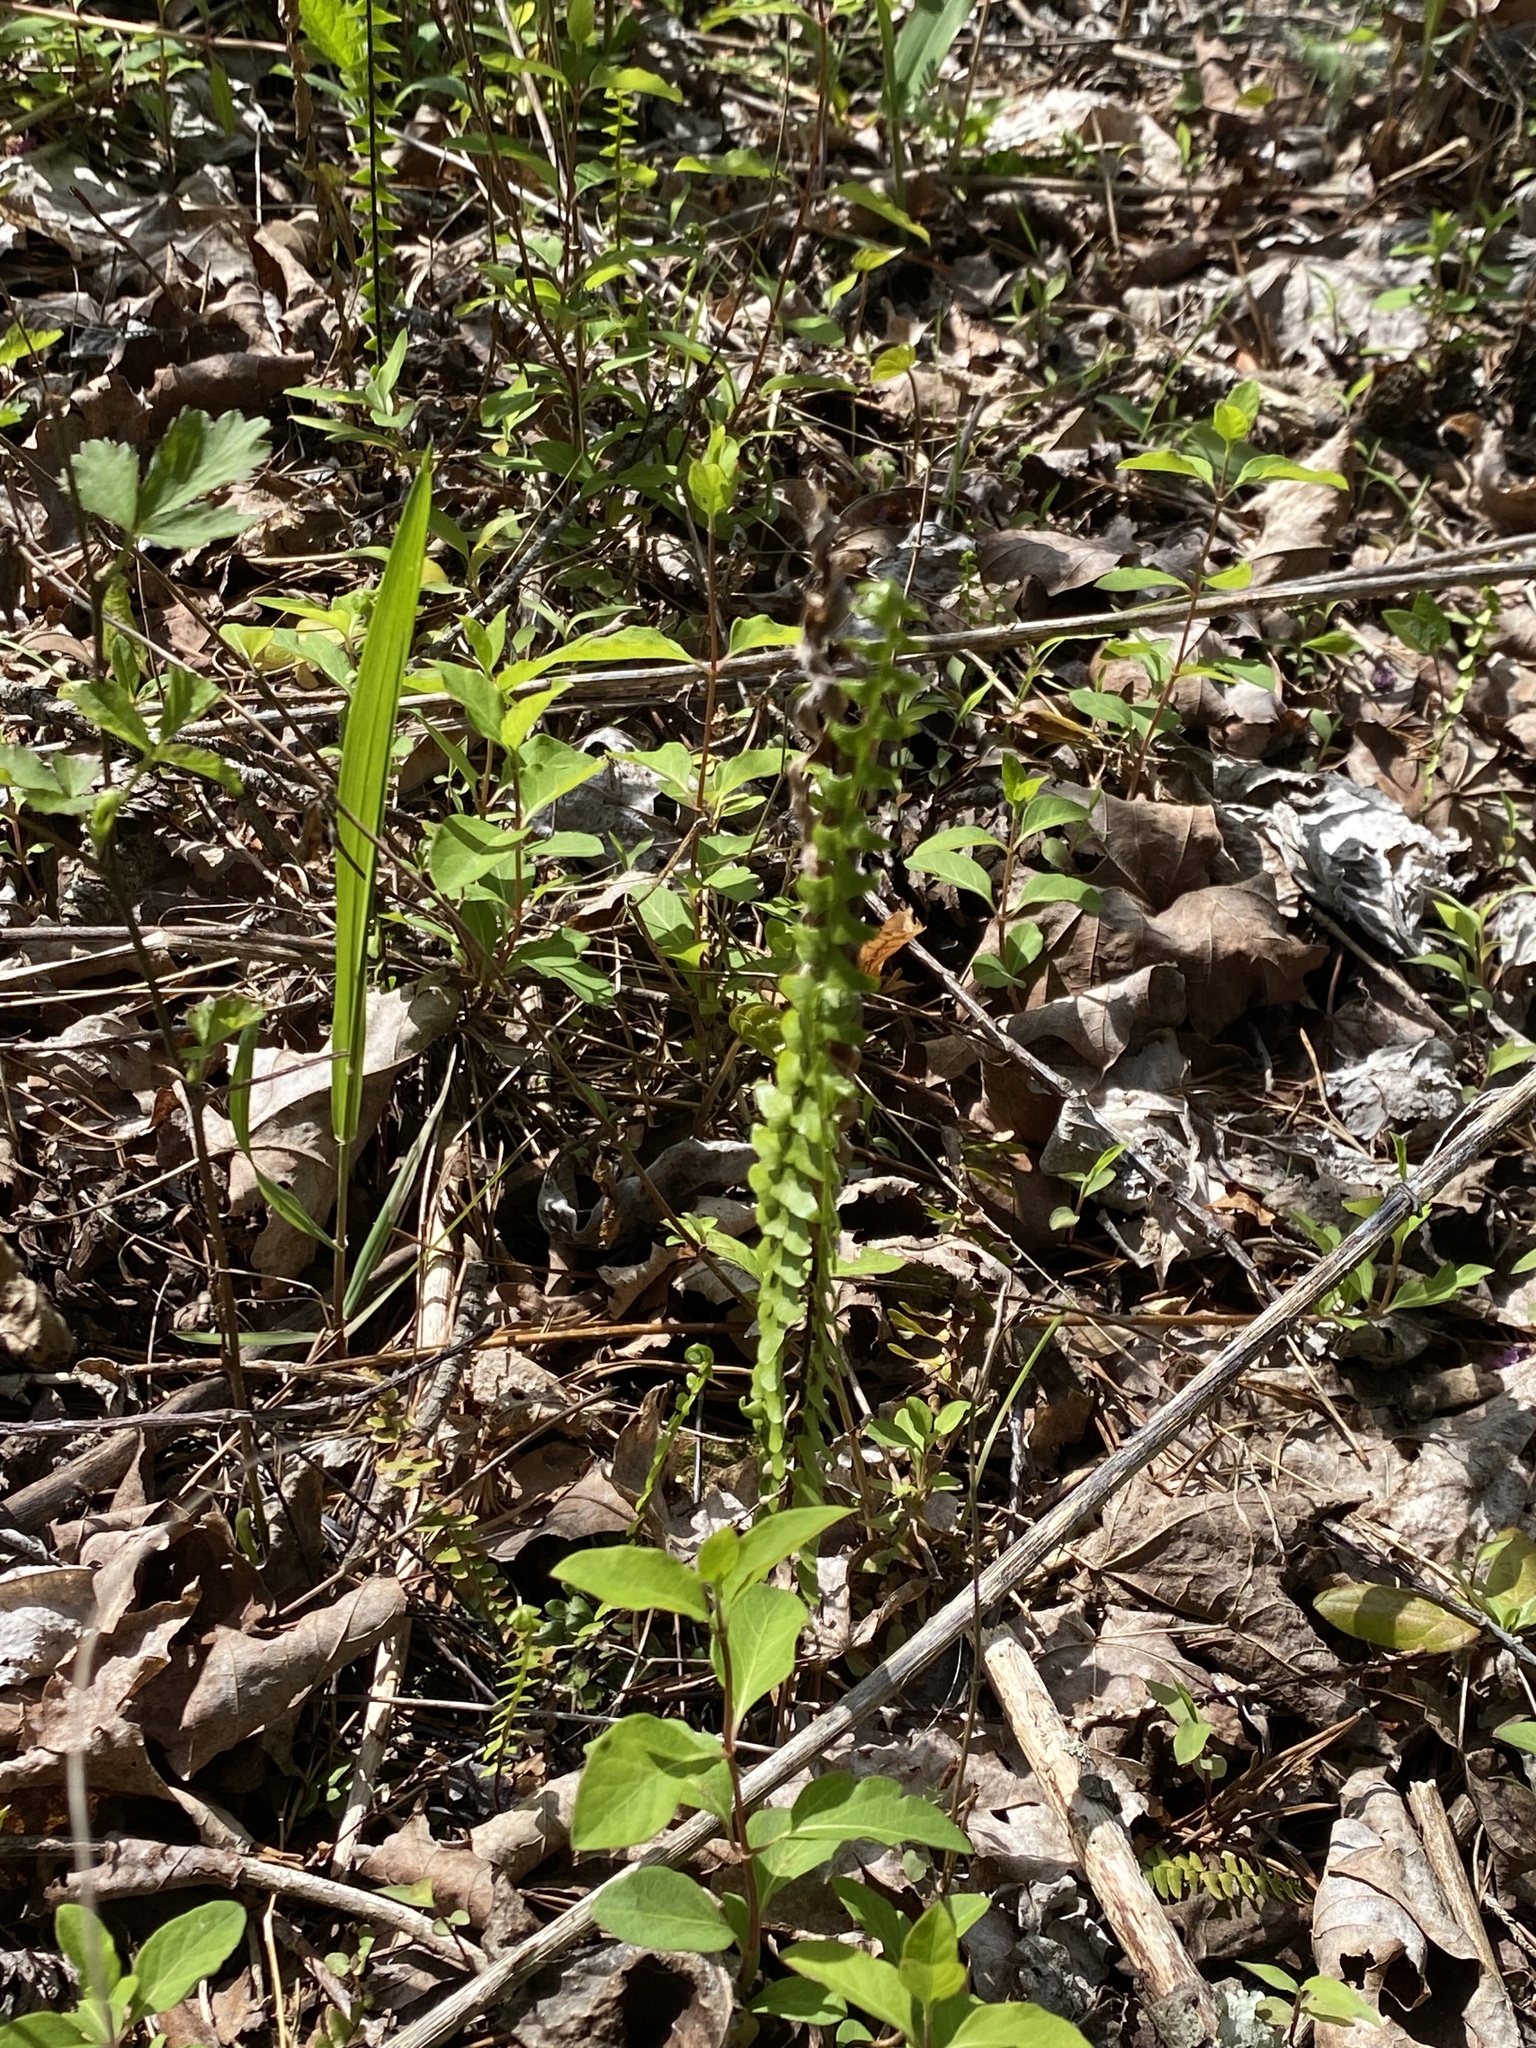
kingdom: Plantae
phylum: Tracheophyta
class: Polypodiopsida
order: Polypodiales
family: Aspleniaceae
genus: Asplenium
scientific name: Asplenium platyneuron
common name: Ebony spleenwort
